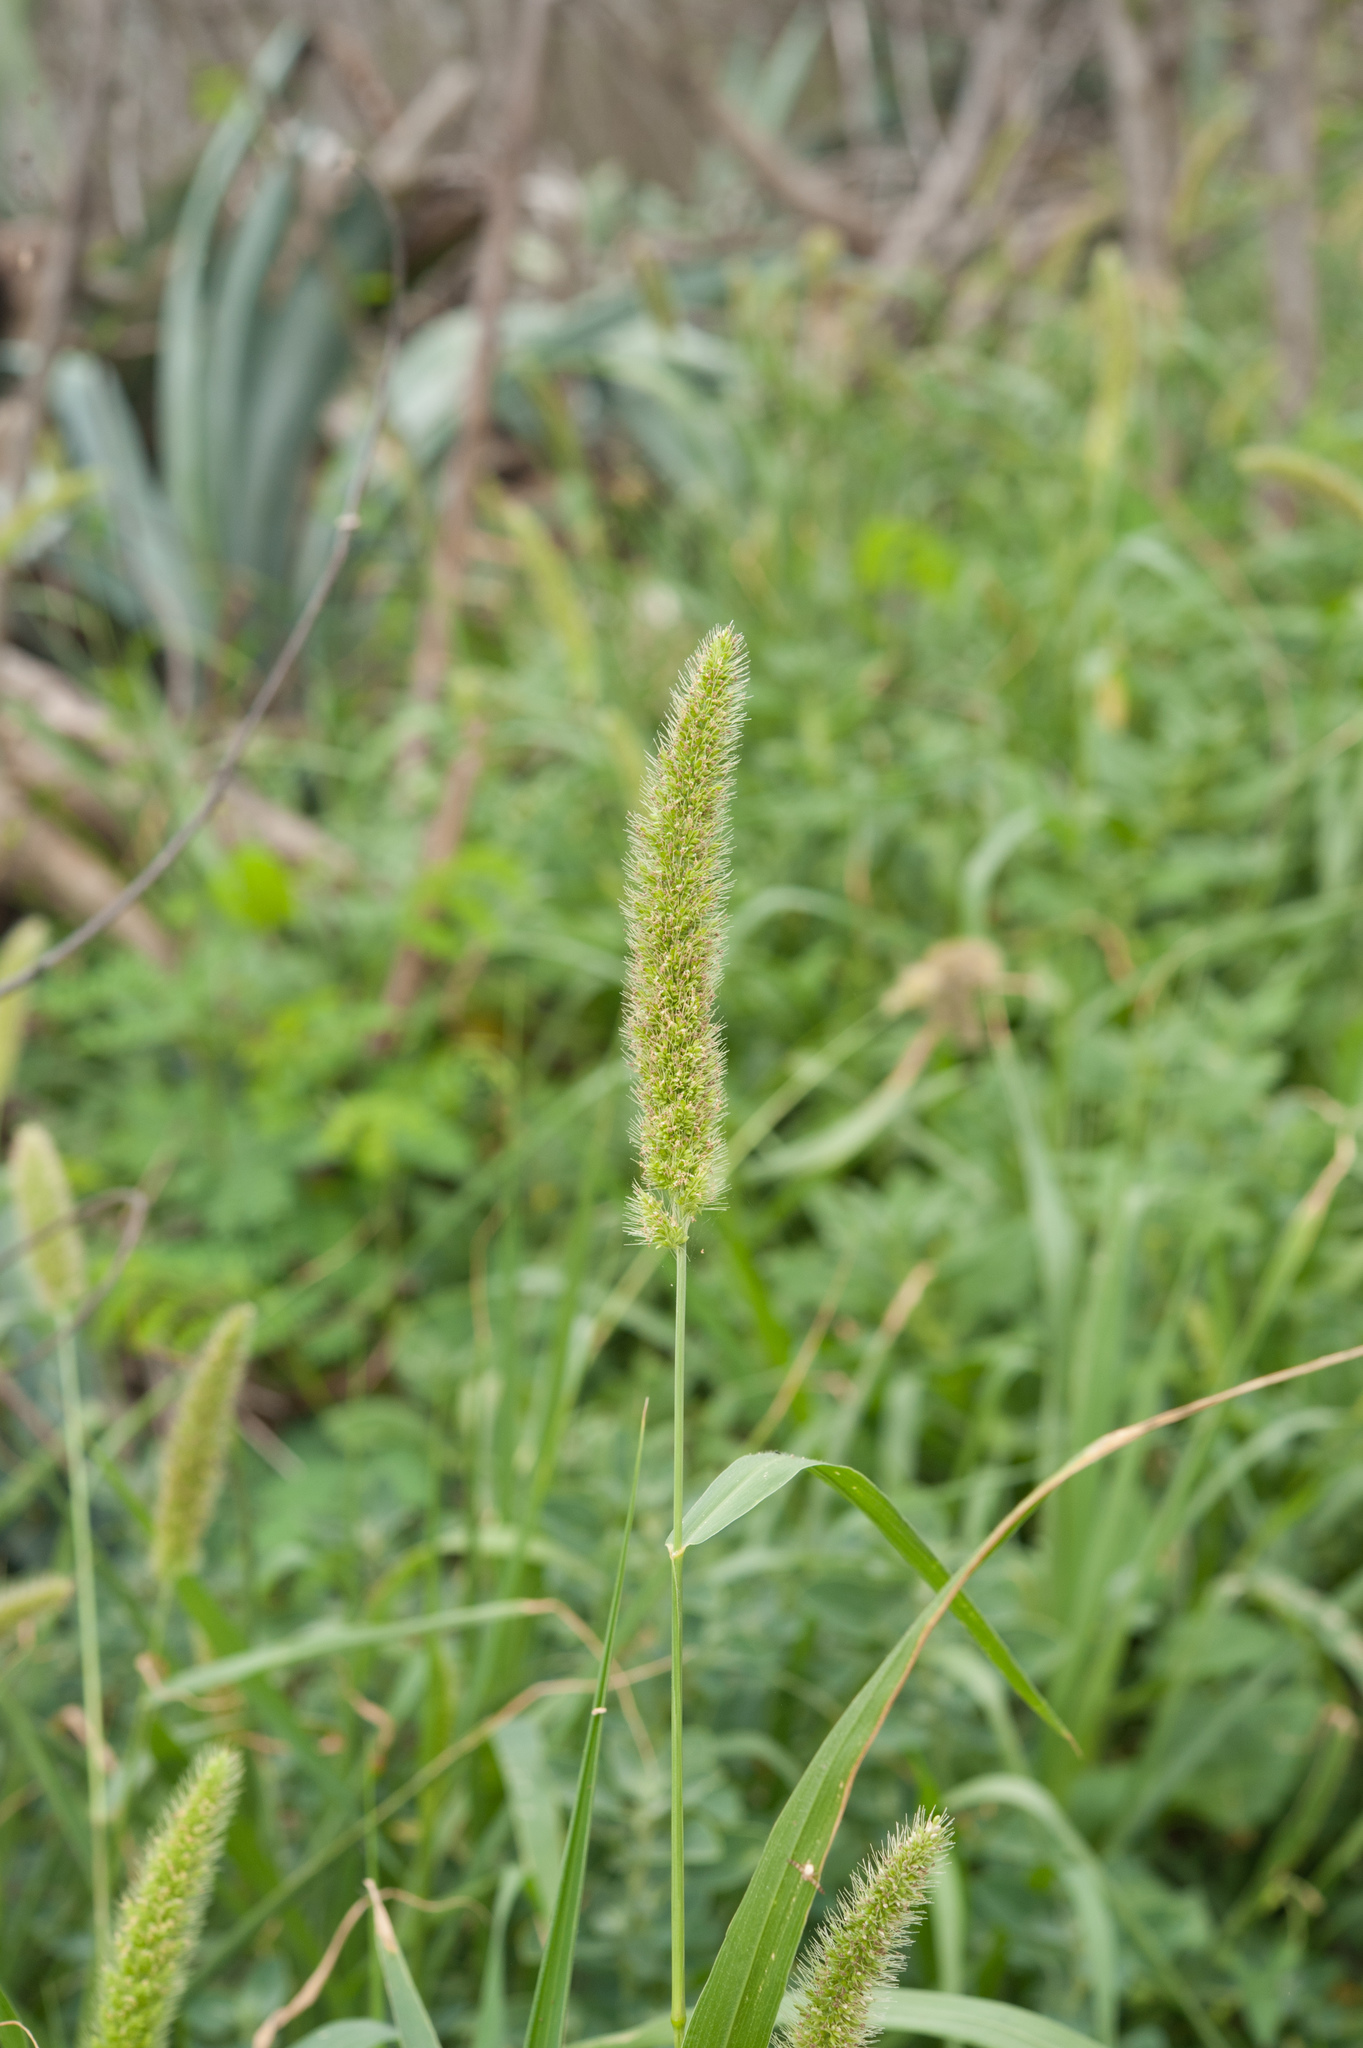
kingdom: Plantae
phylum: Tracheophyta
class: Liliopsida
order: Poales
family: Poaceae
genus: Setaria
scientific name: Setaria verticillata
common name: Hooked bristlegrass
